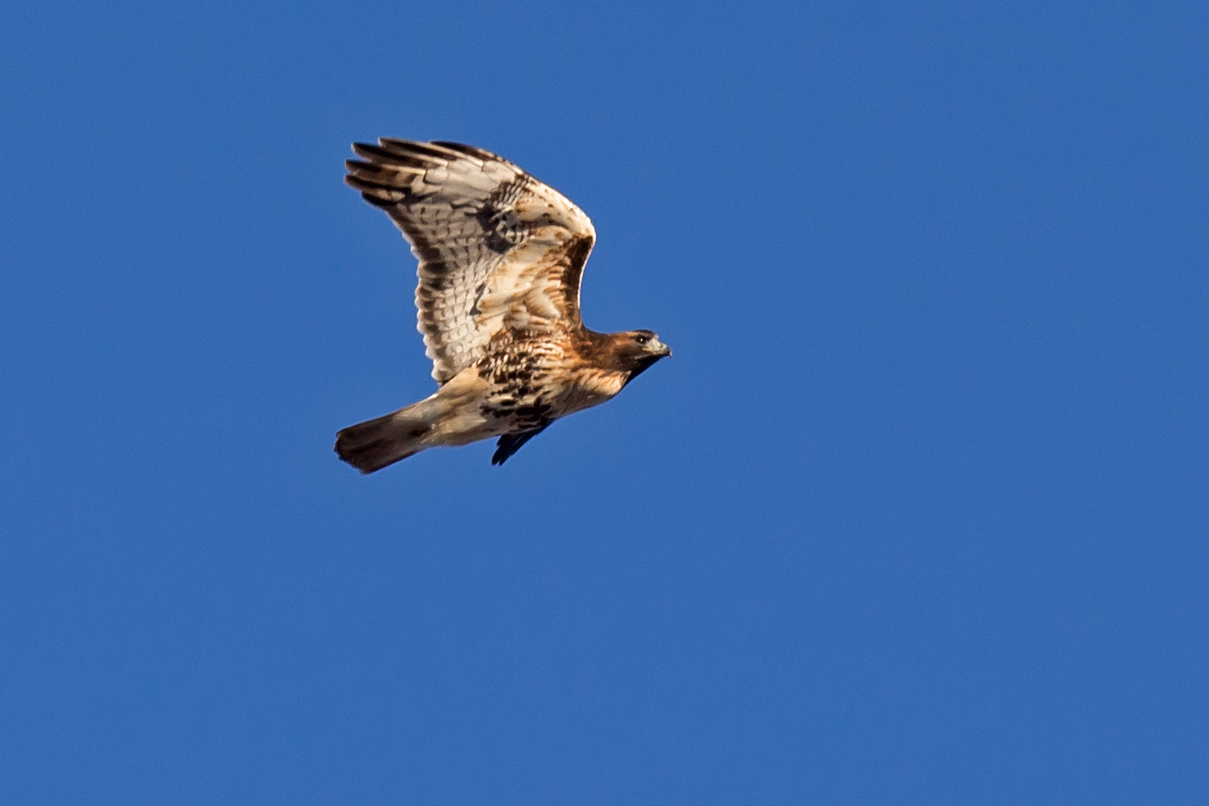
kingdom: Animalia
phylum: Chordata
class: Aves
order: Accipitriformes
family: Accipitridae
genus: Buteo
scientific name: Buteo jamaicensis
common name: Red-tailed hawk
